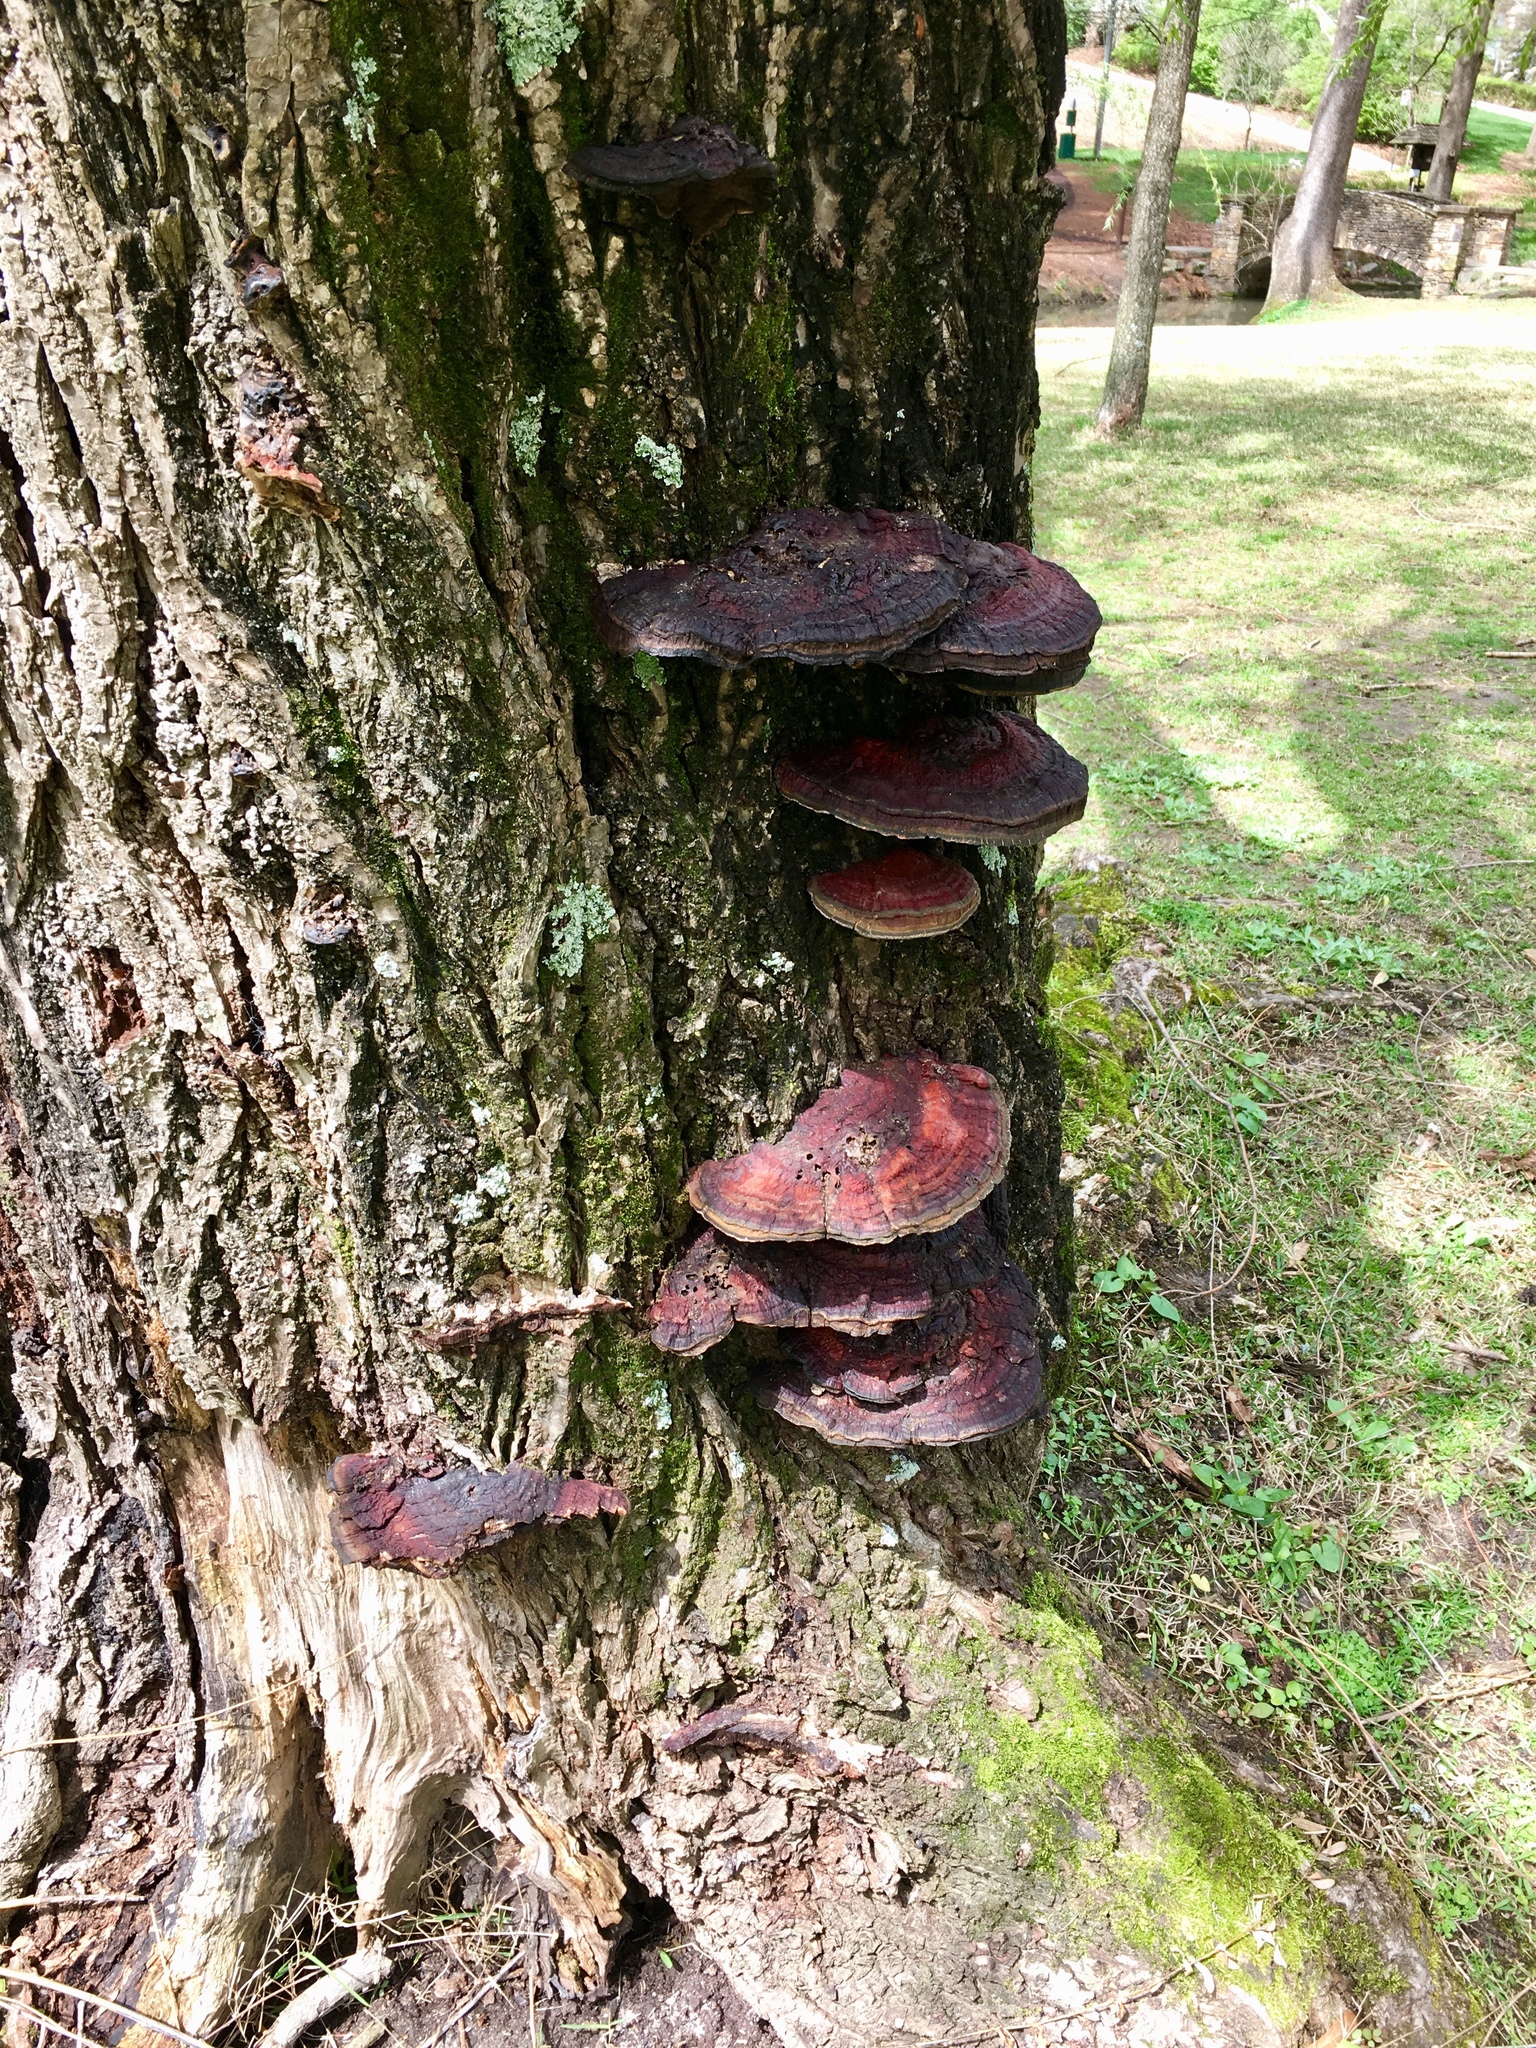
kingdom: Fungi
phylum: Basidiomycota
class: Agaricomycetes
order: Polyporales
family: Polyporaceae
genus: Ganoderma
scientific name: Ganoderma resinaceum
